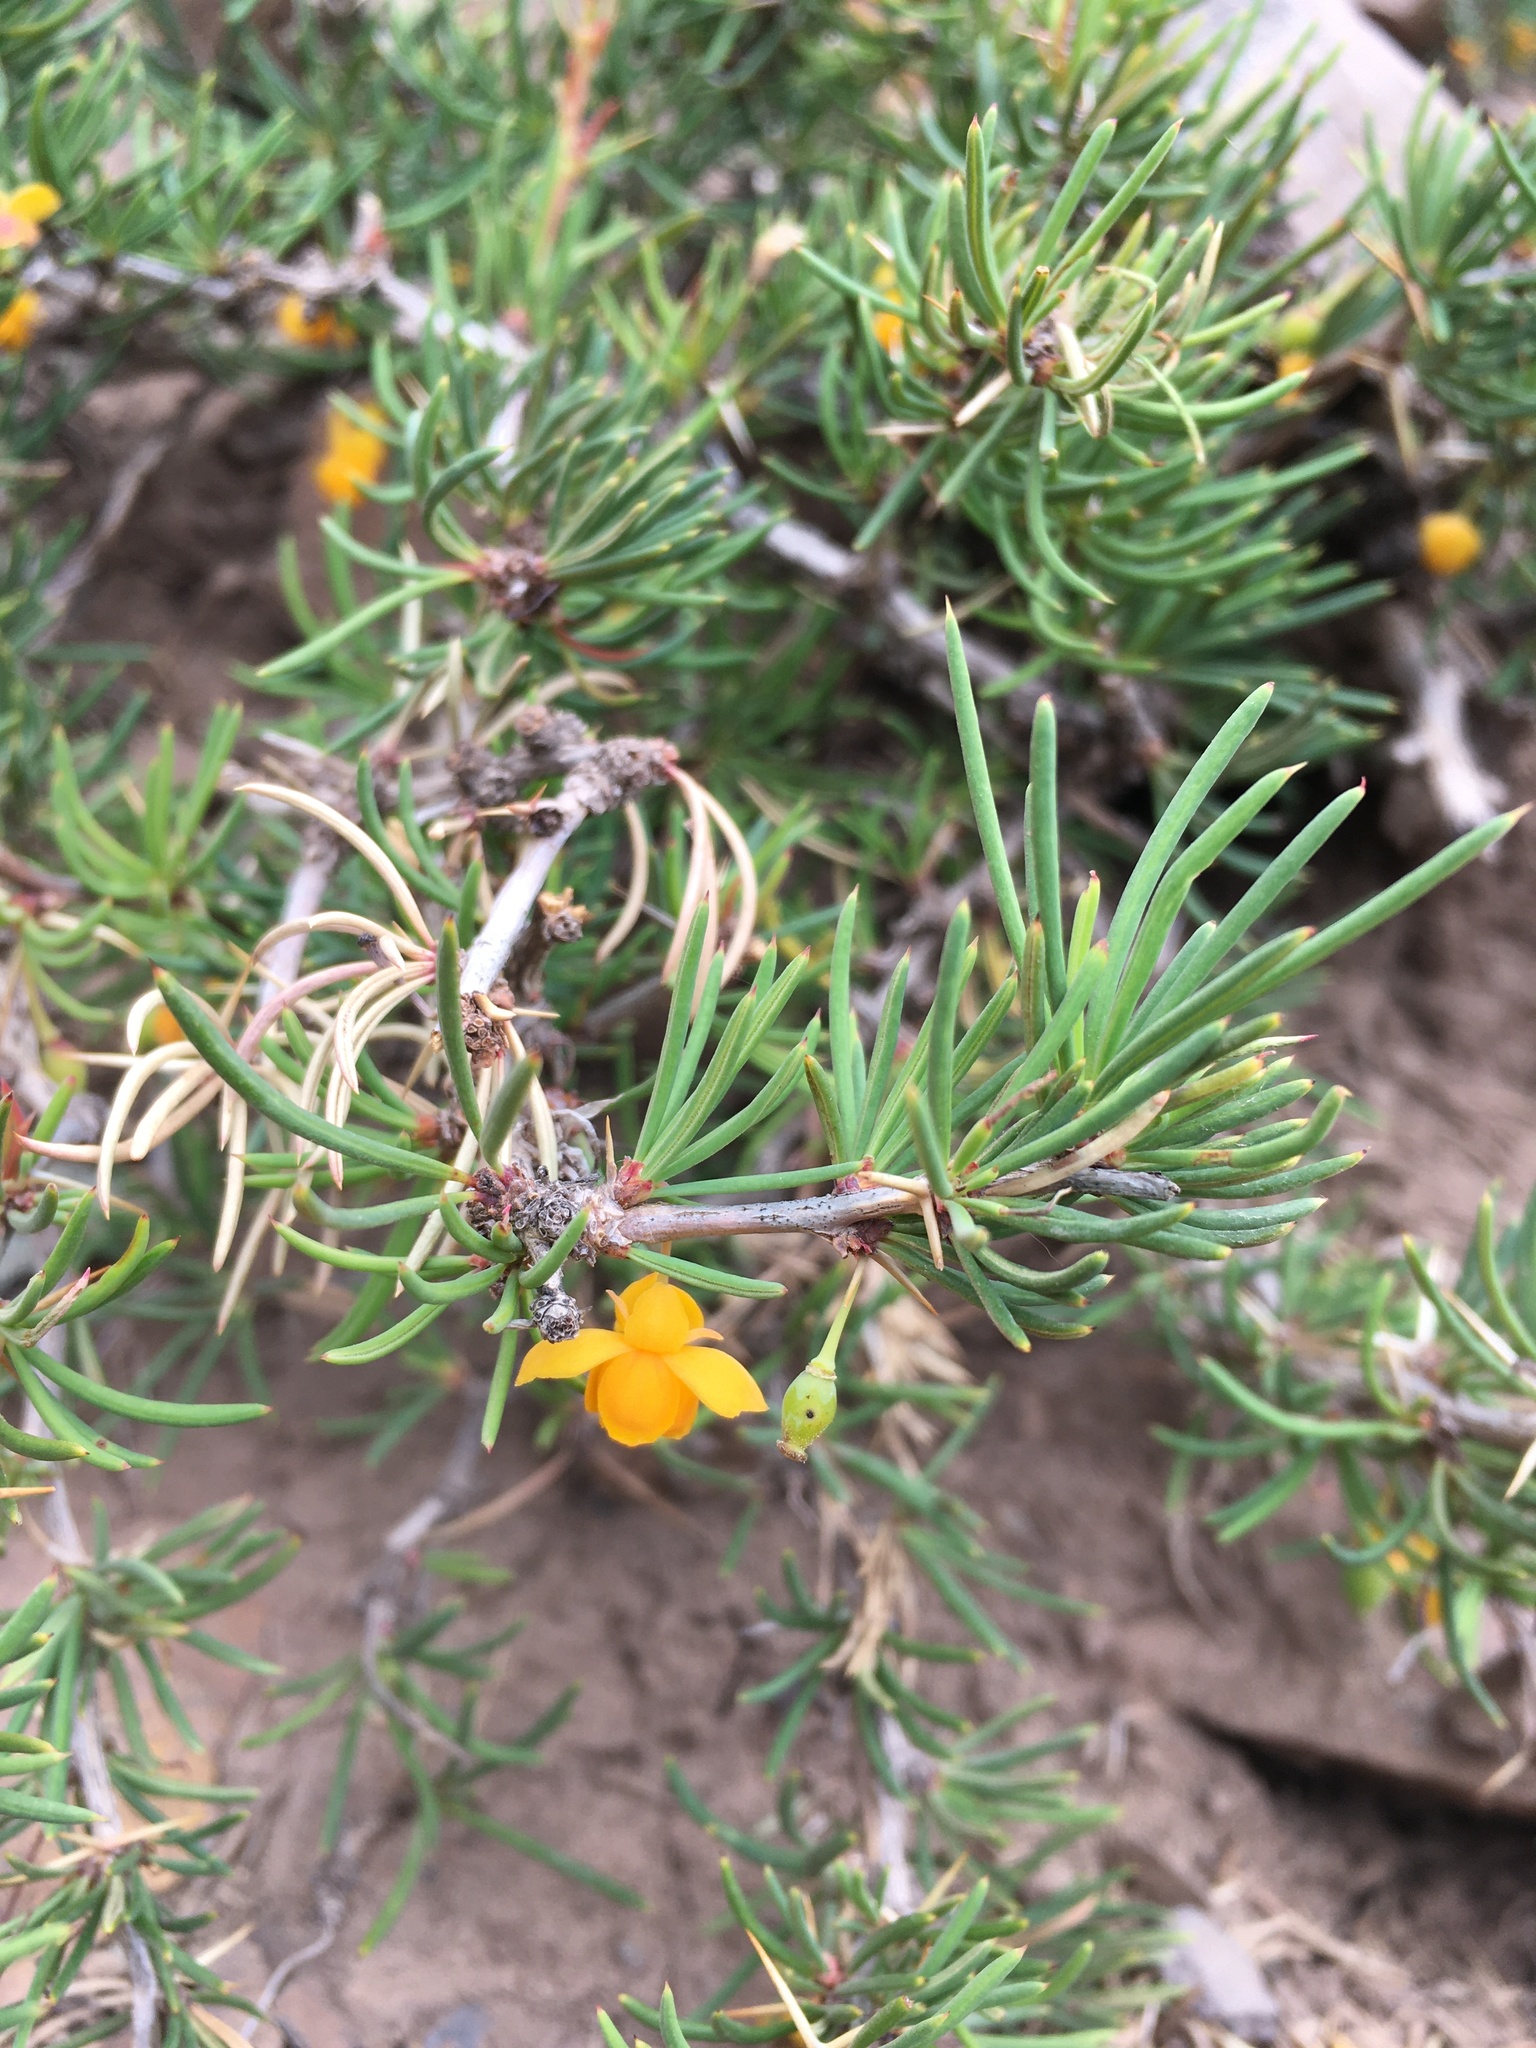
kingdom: Plantae
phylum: Tracheophyta
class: Magnoliopsida
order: Ranunculales
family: Berberidaceae
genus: Berberis
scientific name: Berberis empetrifolia
